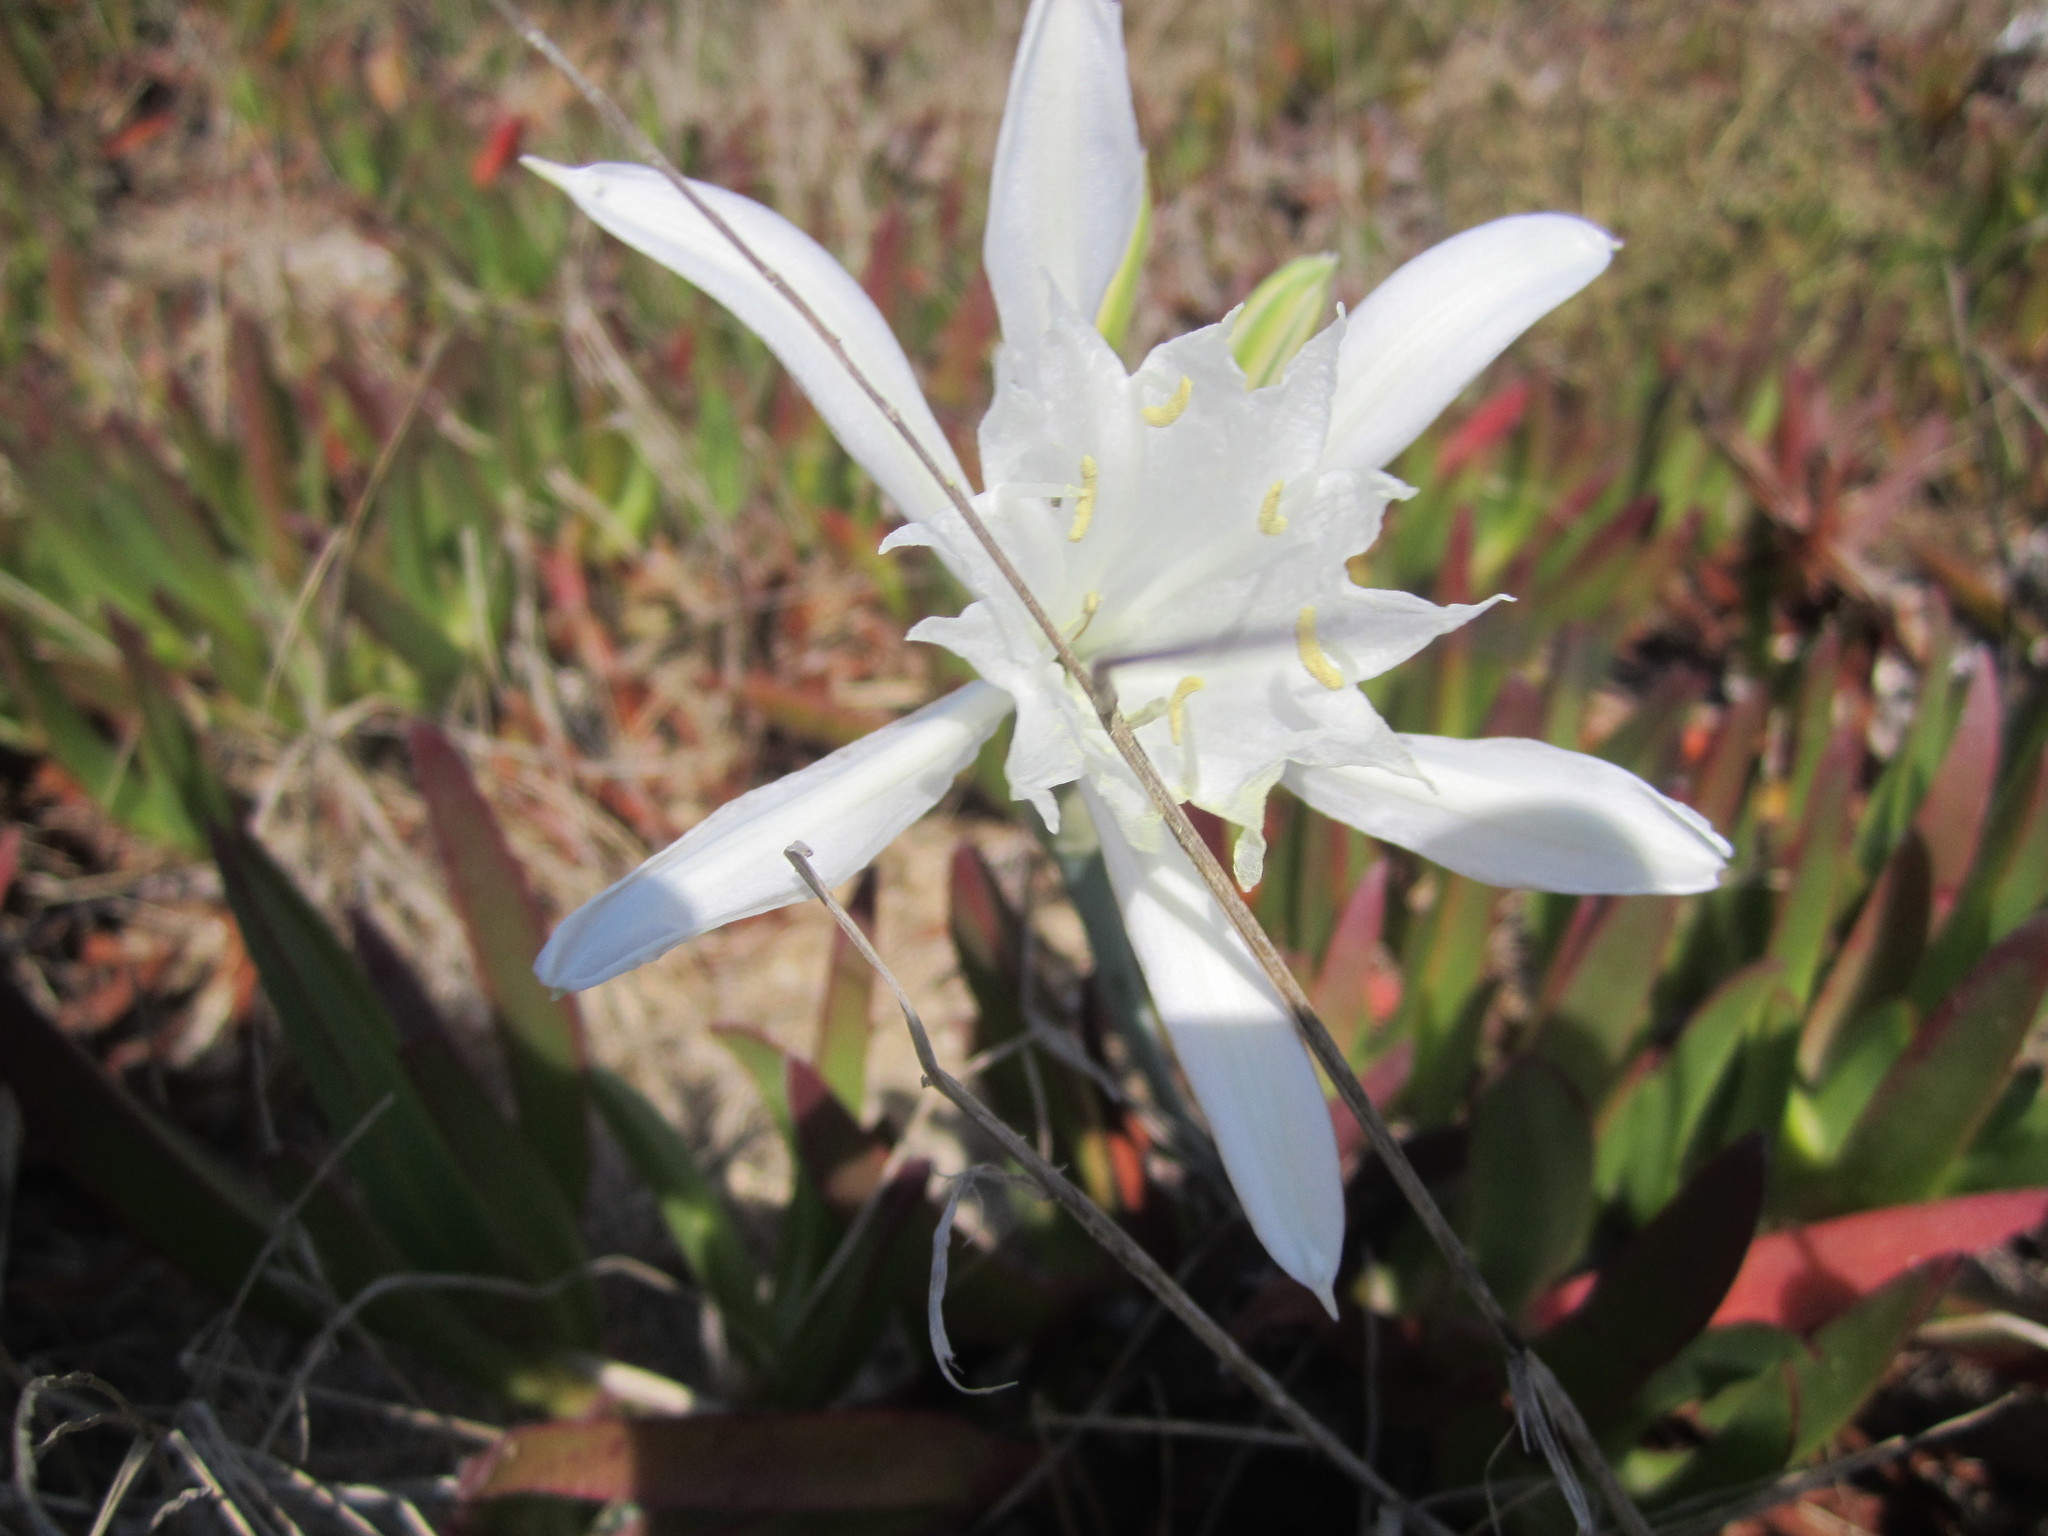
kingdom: Plantae
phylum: Tracheophyta
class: Liliopsida
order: Asparagales
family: Amaryllidaceae
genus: Pancratium
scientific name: Pancratium maritimum
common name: Sea-daffodil
